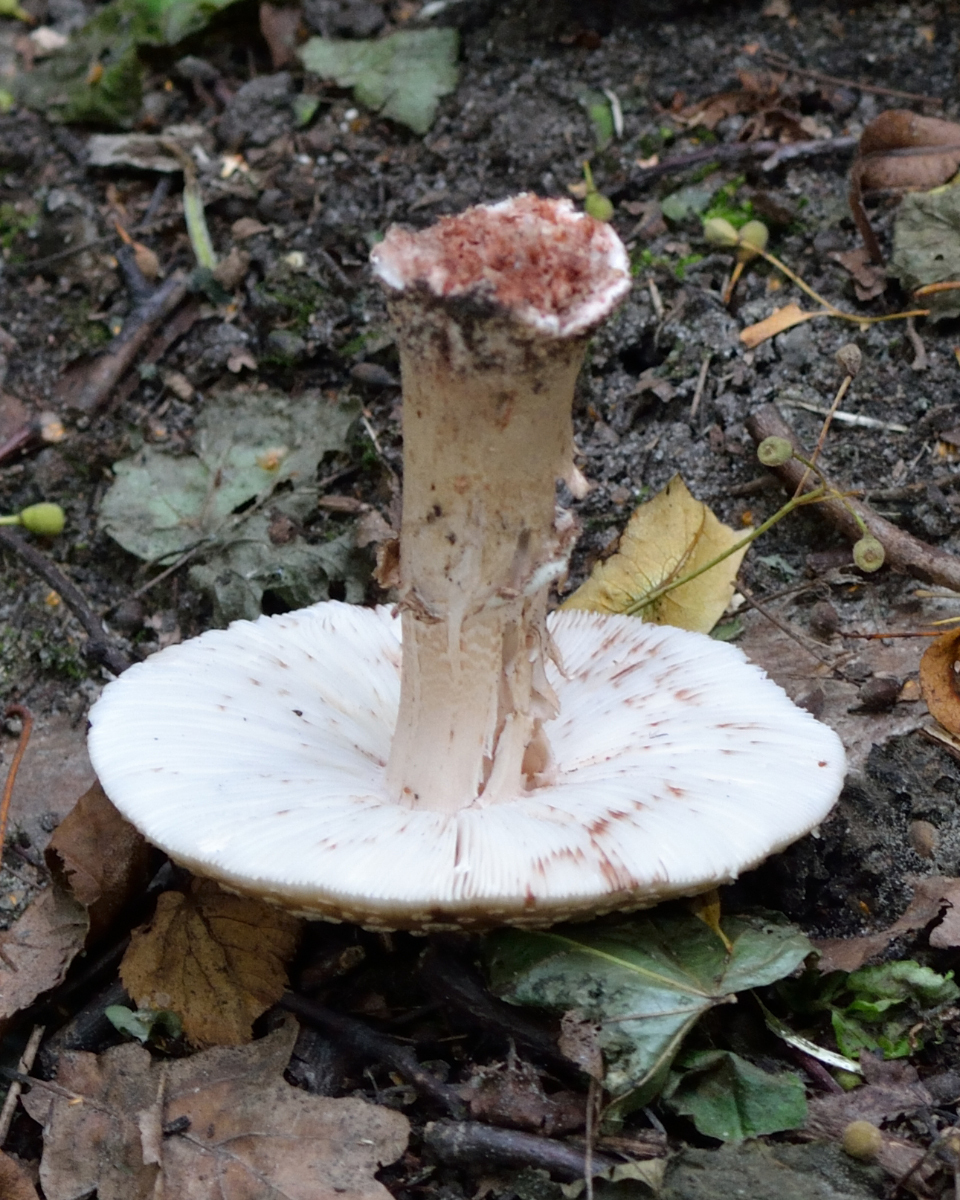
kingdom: Fungi
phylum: Basidiomycota
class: Agaricomycetes
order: Agaricales
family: Amanitaceae
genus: Amanita
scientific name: Amanita rubescens
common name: Blusher
